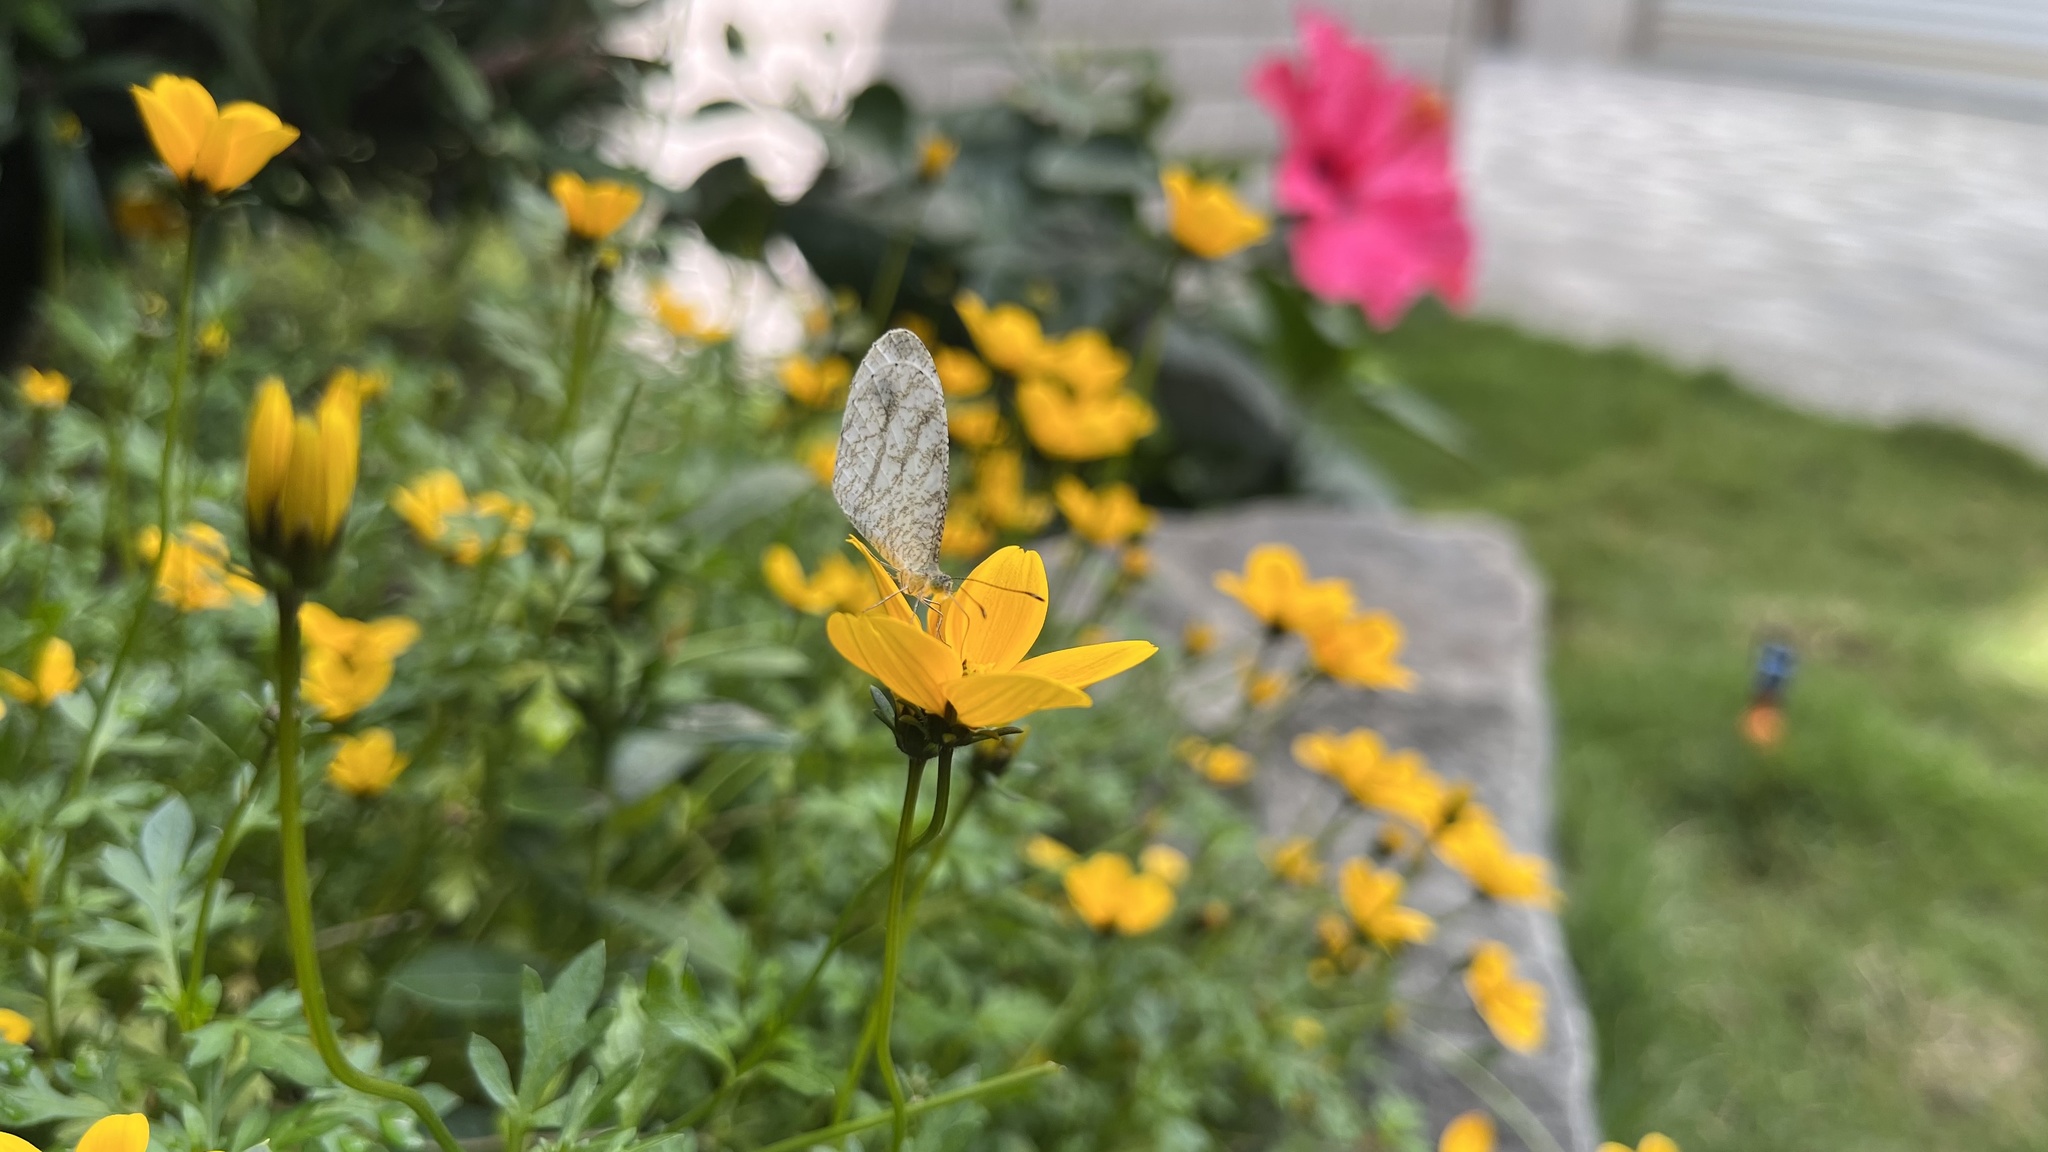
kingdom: Animalia
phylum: Arthropoda
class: Insecta
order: Lepidoptera
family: Pieridae
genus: Leptosia
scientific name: Leptosia nina
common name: Psyche
